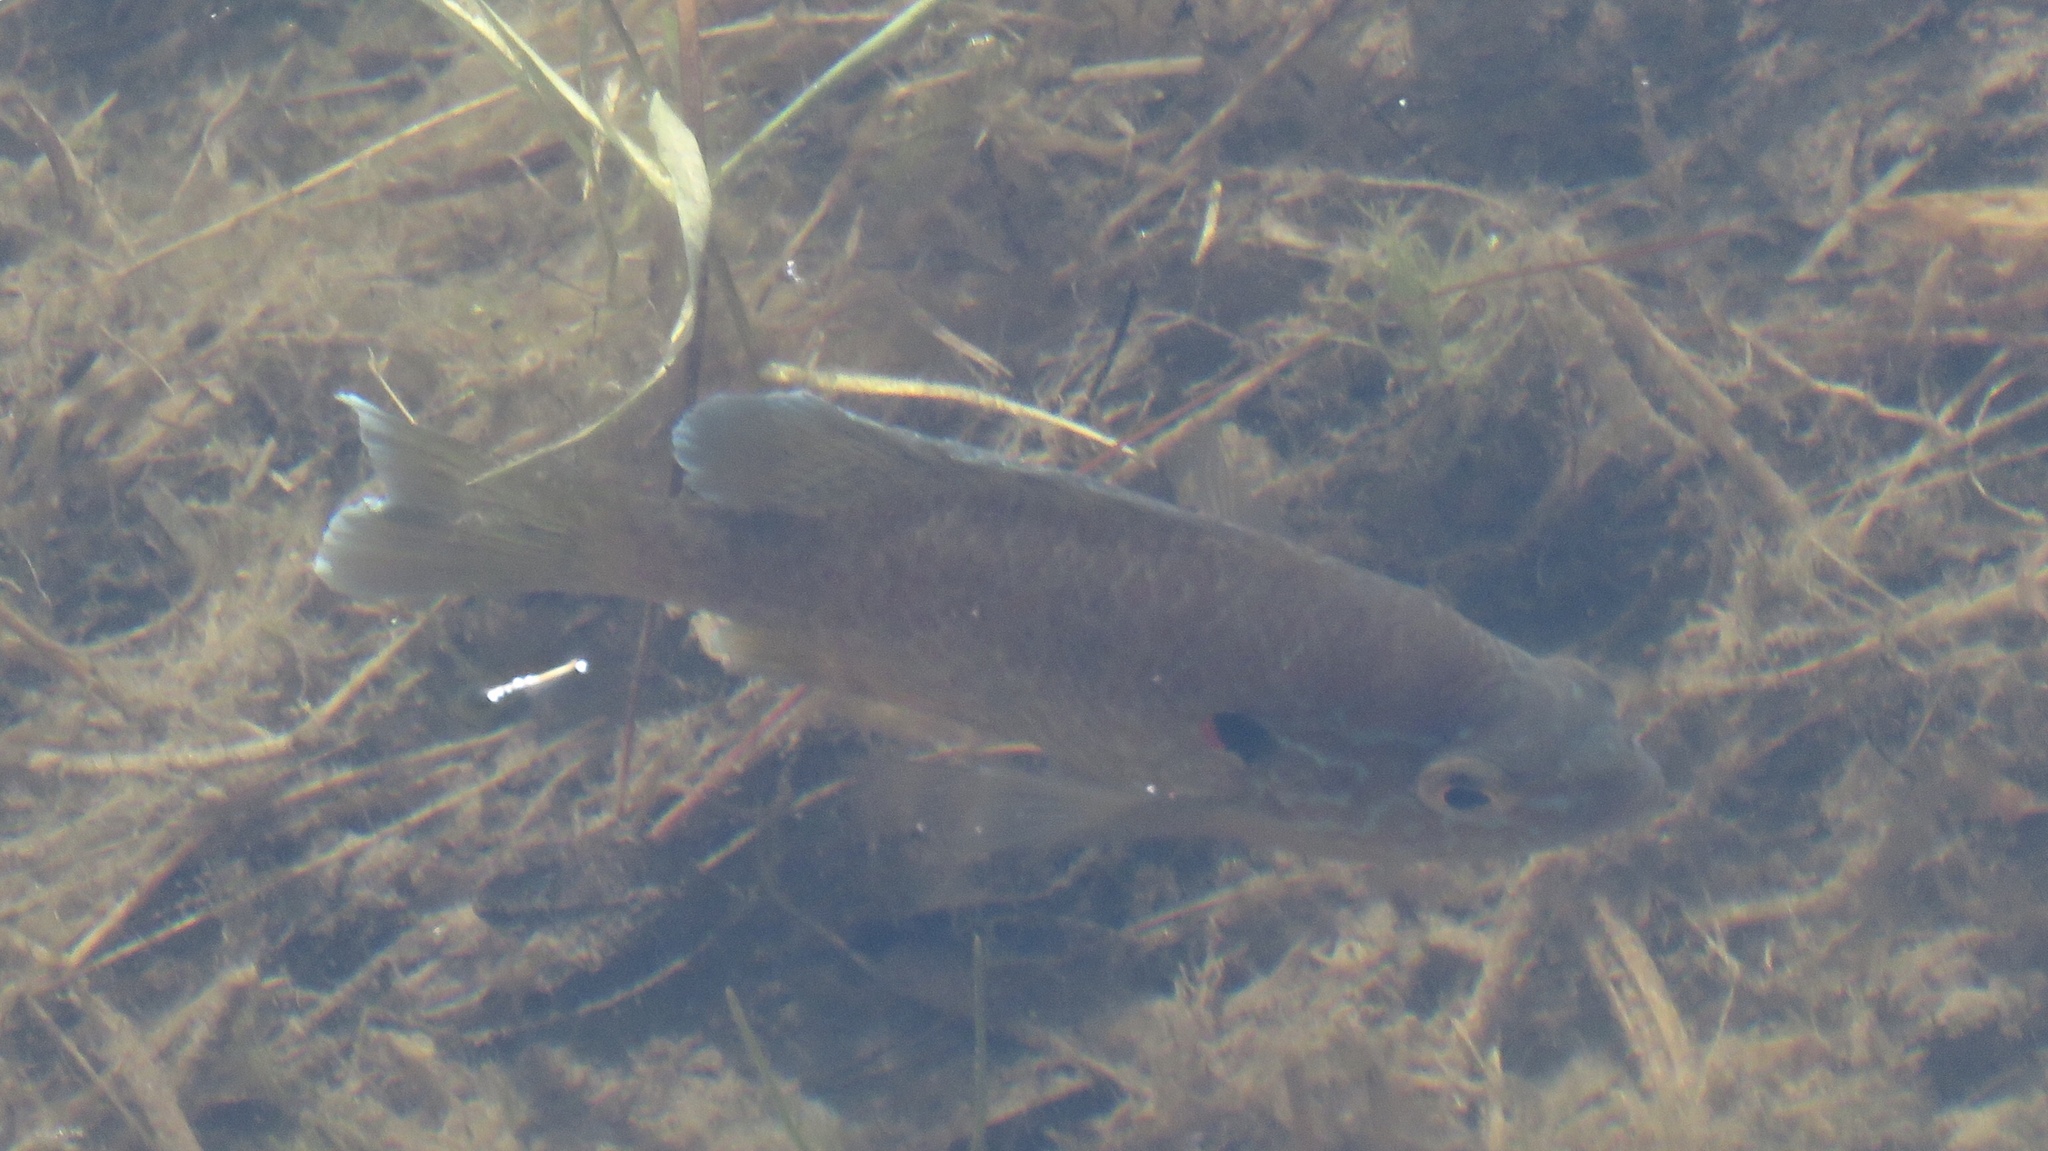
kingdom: Animalia
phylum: Chordata
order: Perciformes
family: Centrarchidae
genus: Lepomis
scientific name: Lepomis gibbosus
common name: Pumpkinseed
